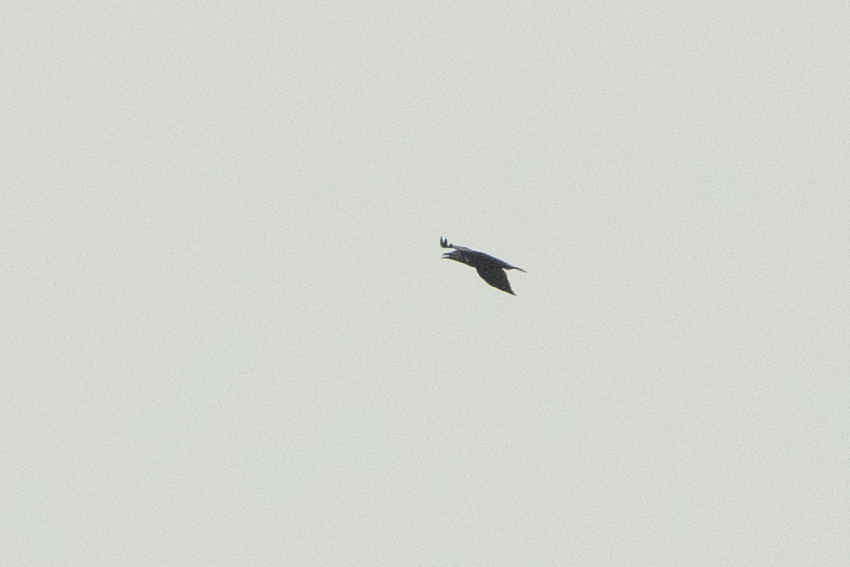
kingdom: Animalia
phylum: Chordata
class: Aves
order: Passeriformes
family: Corvidae
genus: Corvus
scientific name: Corvus corax
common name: Common raven
